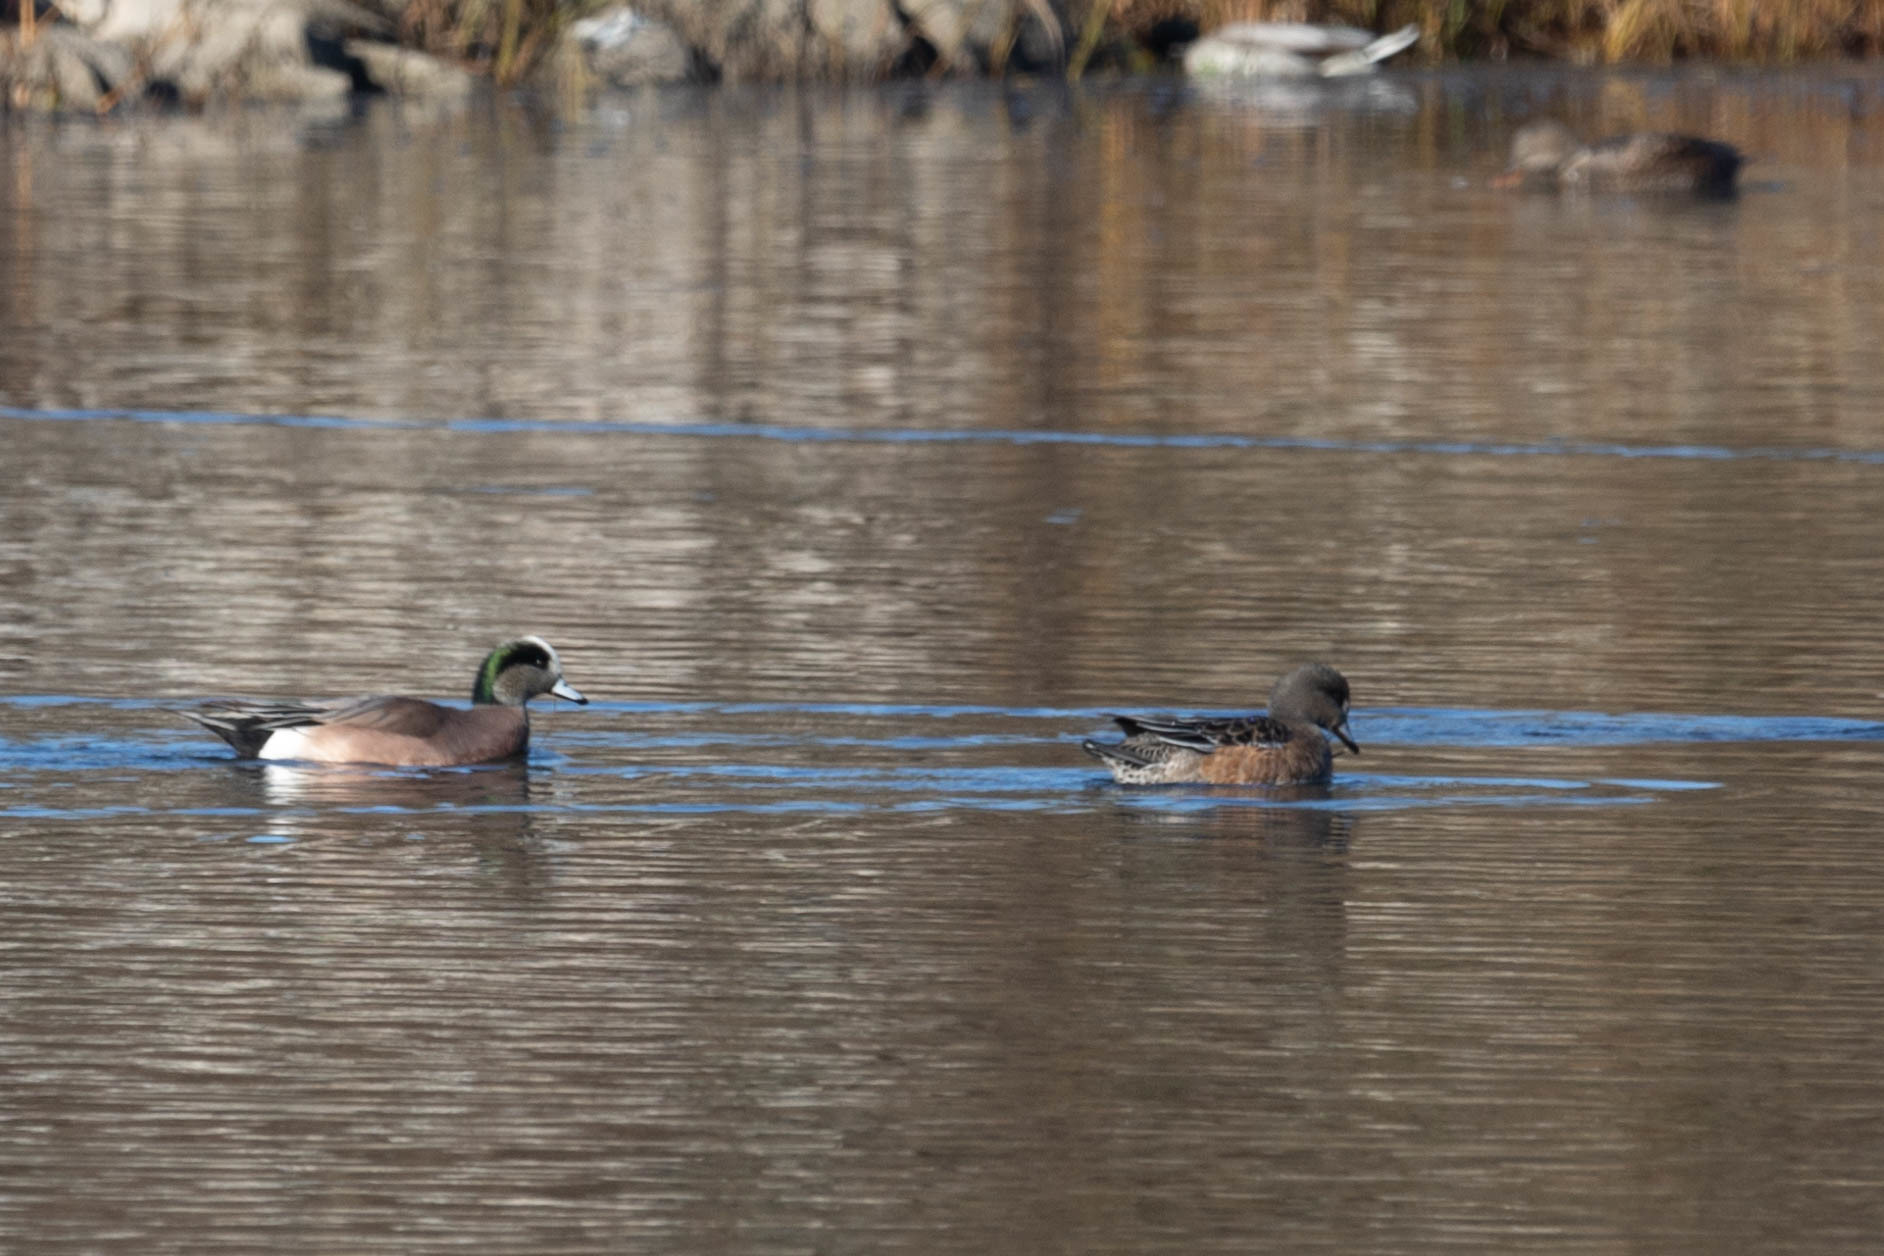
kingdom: Animalia
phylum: Chordata
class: Aves
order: Anseriformes
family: Anatidae
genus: Mareca
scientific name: Mareca americana
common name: American wigeon
